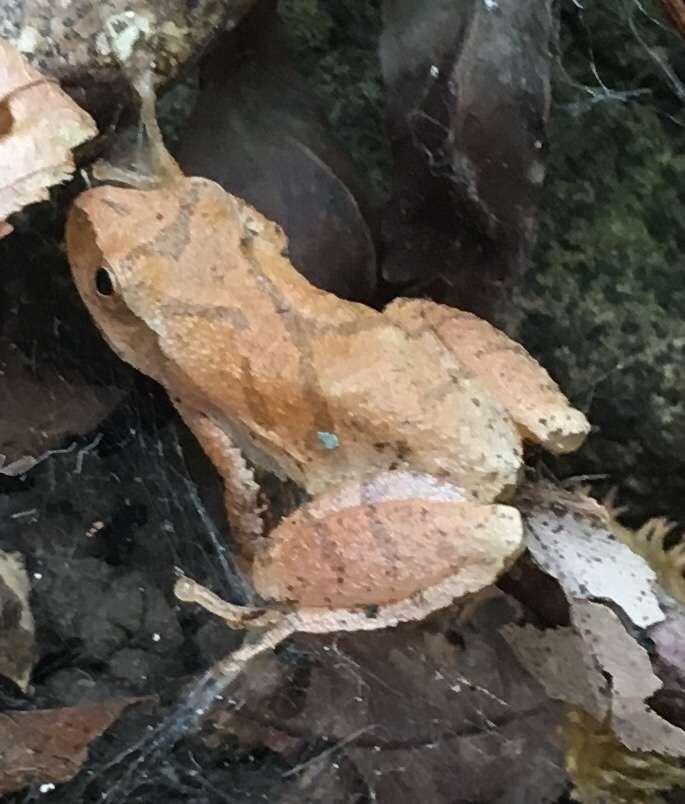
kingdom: Animalia
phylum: Chordata
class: Amphibia
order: Anura
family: Hylidae
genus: Pseudacris
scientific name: Pseudacris crucifer
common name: Spring peeper
